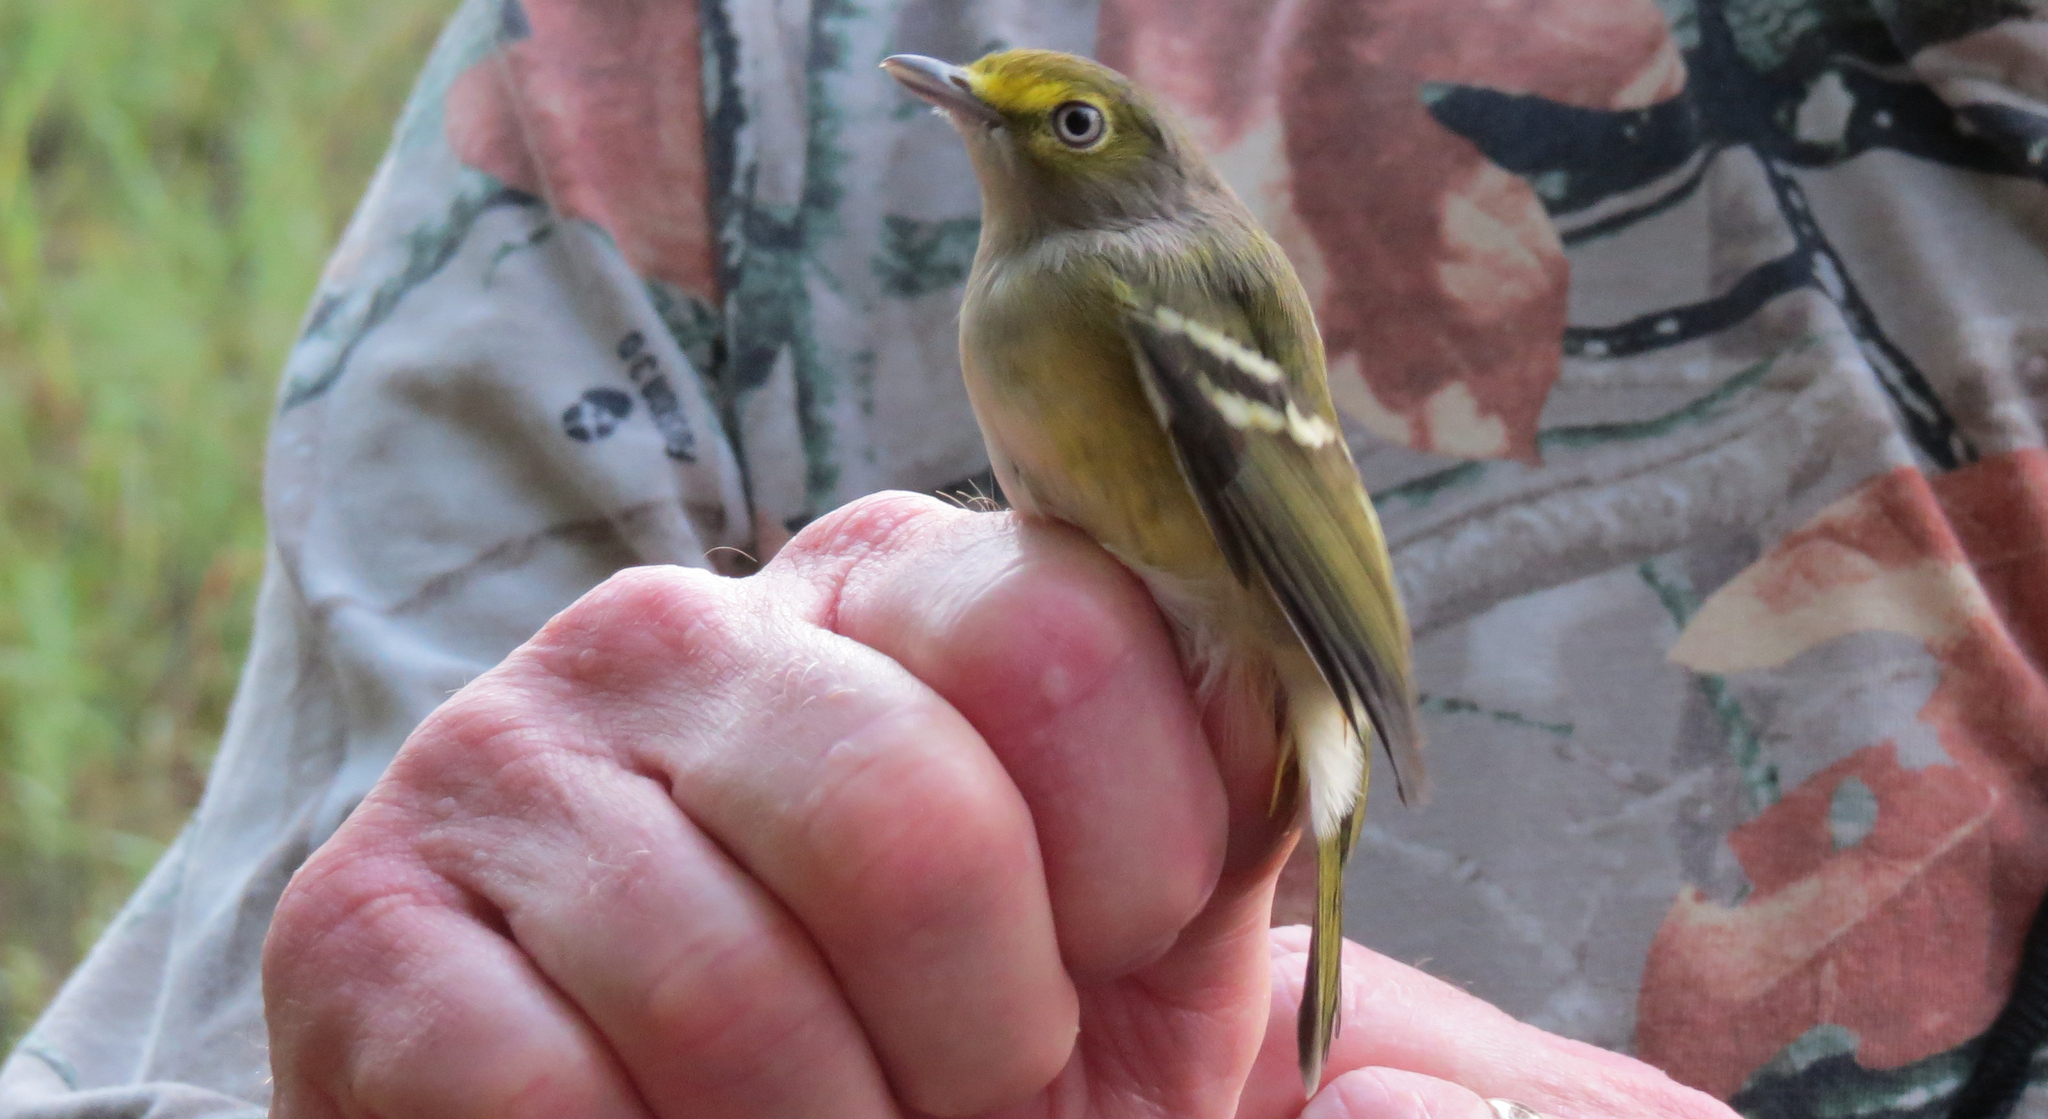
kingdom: Animalia
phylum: Chordata
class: Aves
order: Passeriformes
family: Vireonidae
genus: Vireo
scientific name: Vireo griseus
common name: White-eyed vireo
